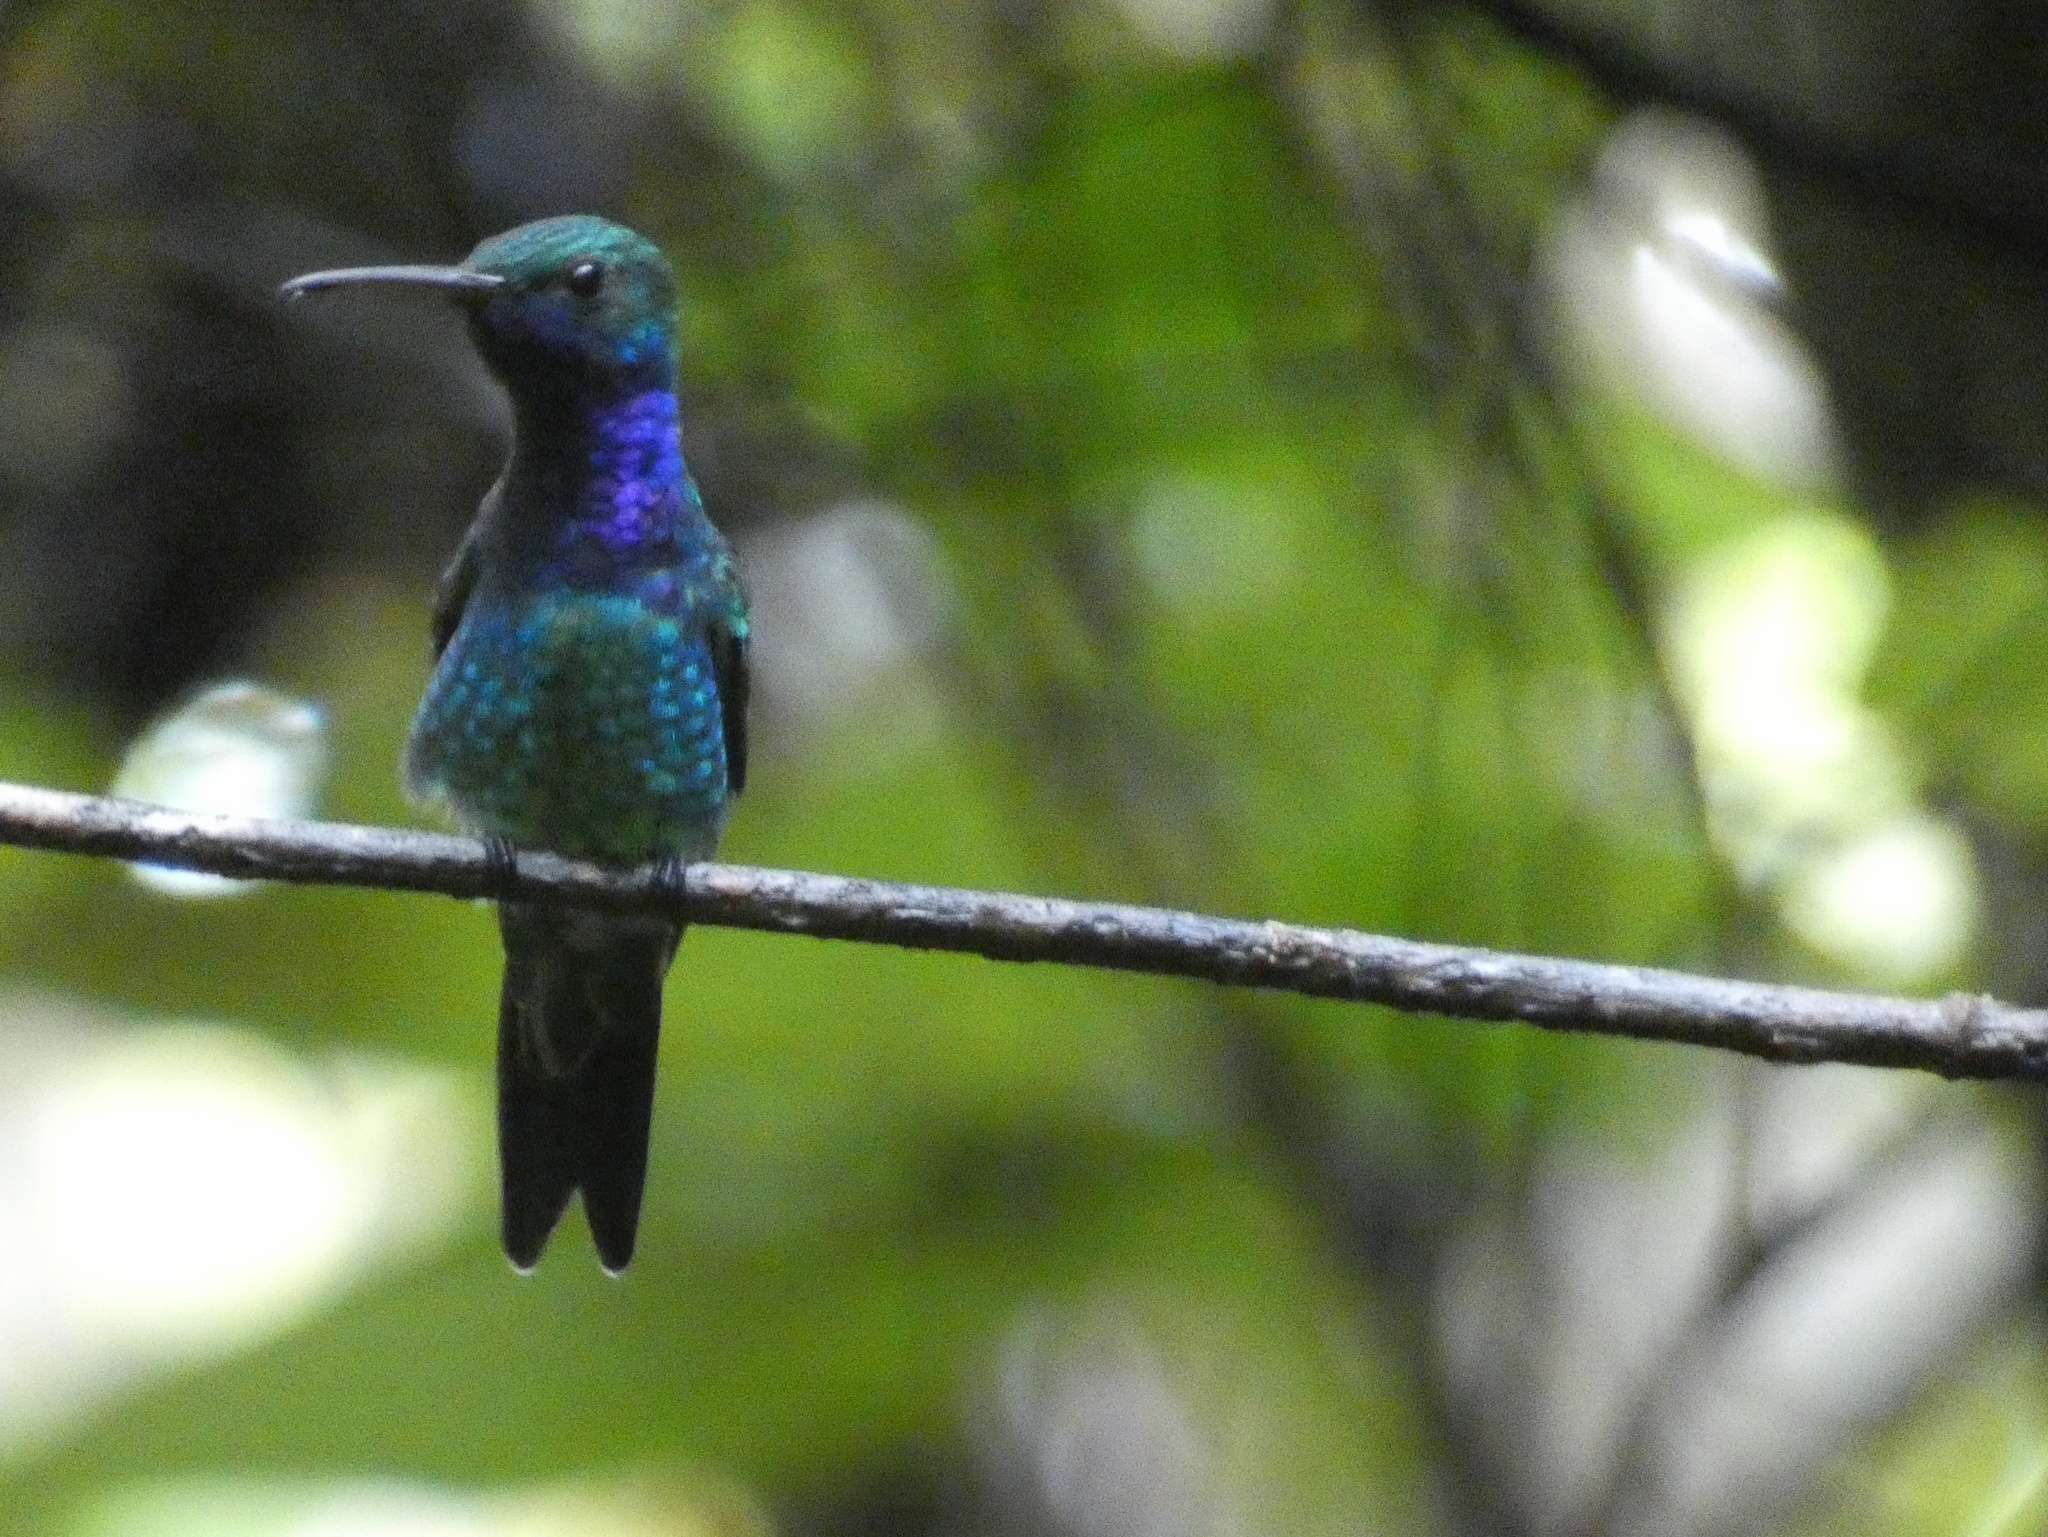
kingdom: Animalia
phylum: Chordata
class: Aves
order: Apodiformes
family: Trochilidae
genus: Chrysuronia
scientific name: Chrysuronia coeruleogularis
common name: Sapphire-throated hummingbird
